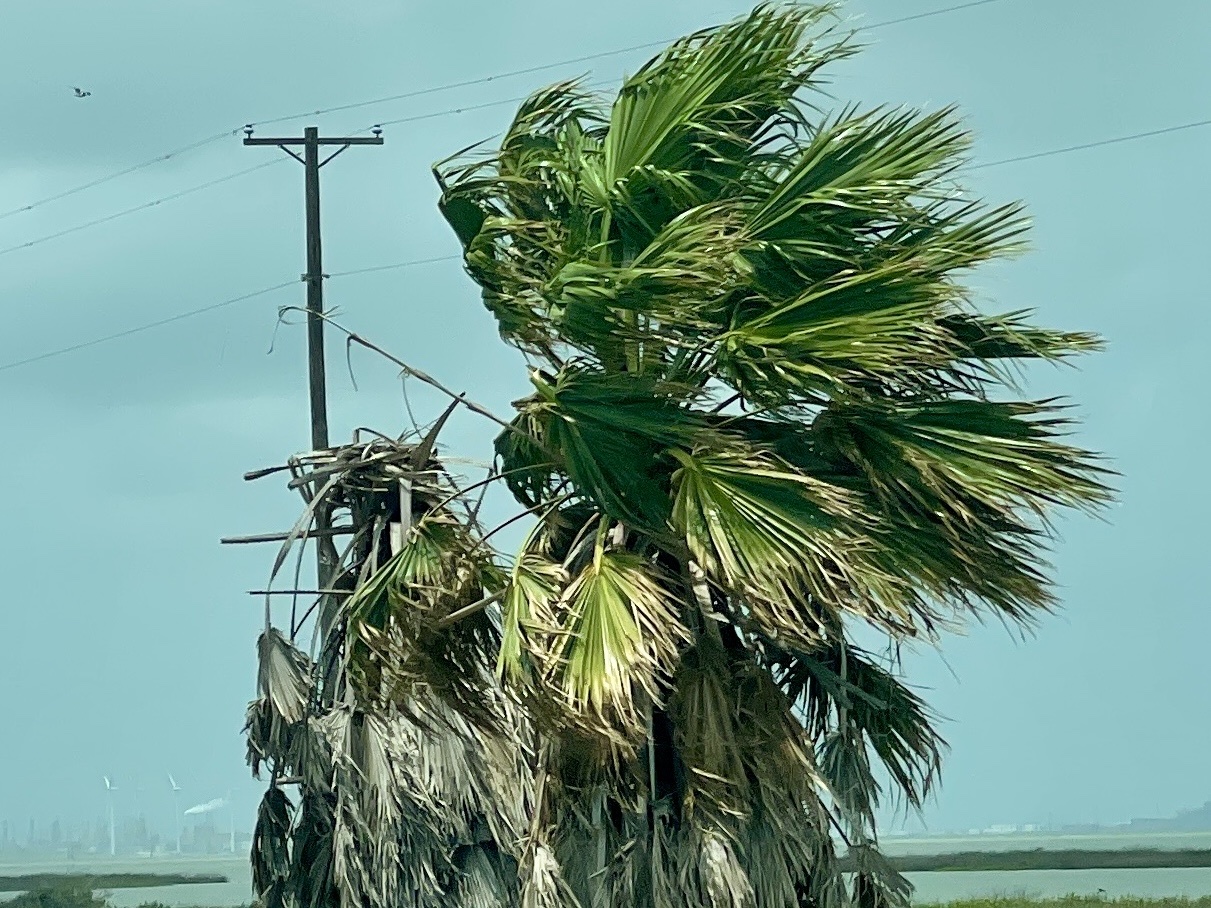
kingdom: Plantae
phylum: Tracheophyta
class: Liliopsida
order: Arecales
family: Arecaceae
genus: Washingtonia
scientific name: Washingtonia robusta
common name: Mexican fan palm
